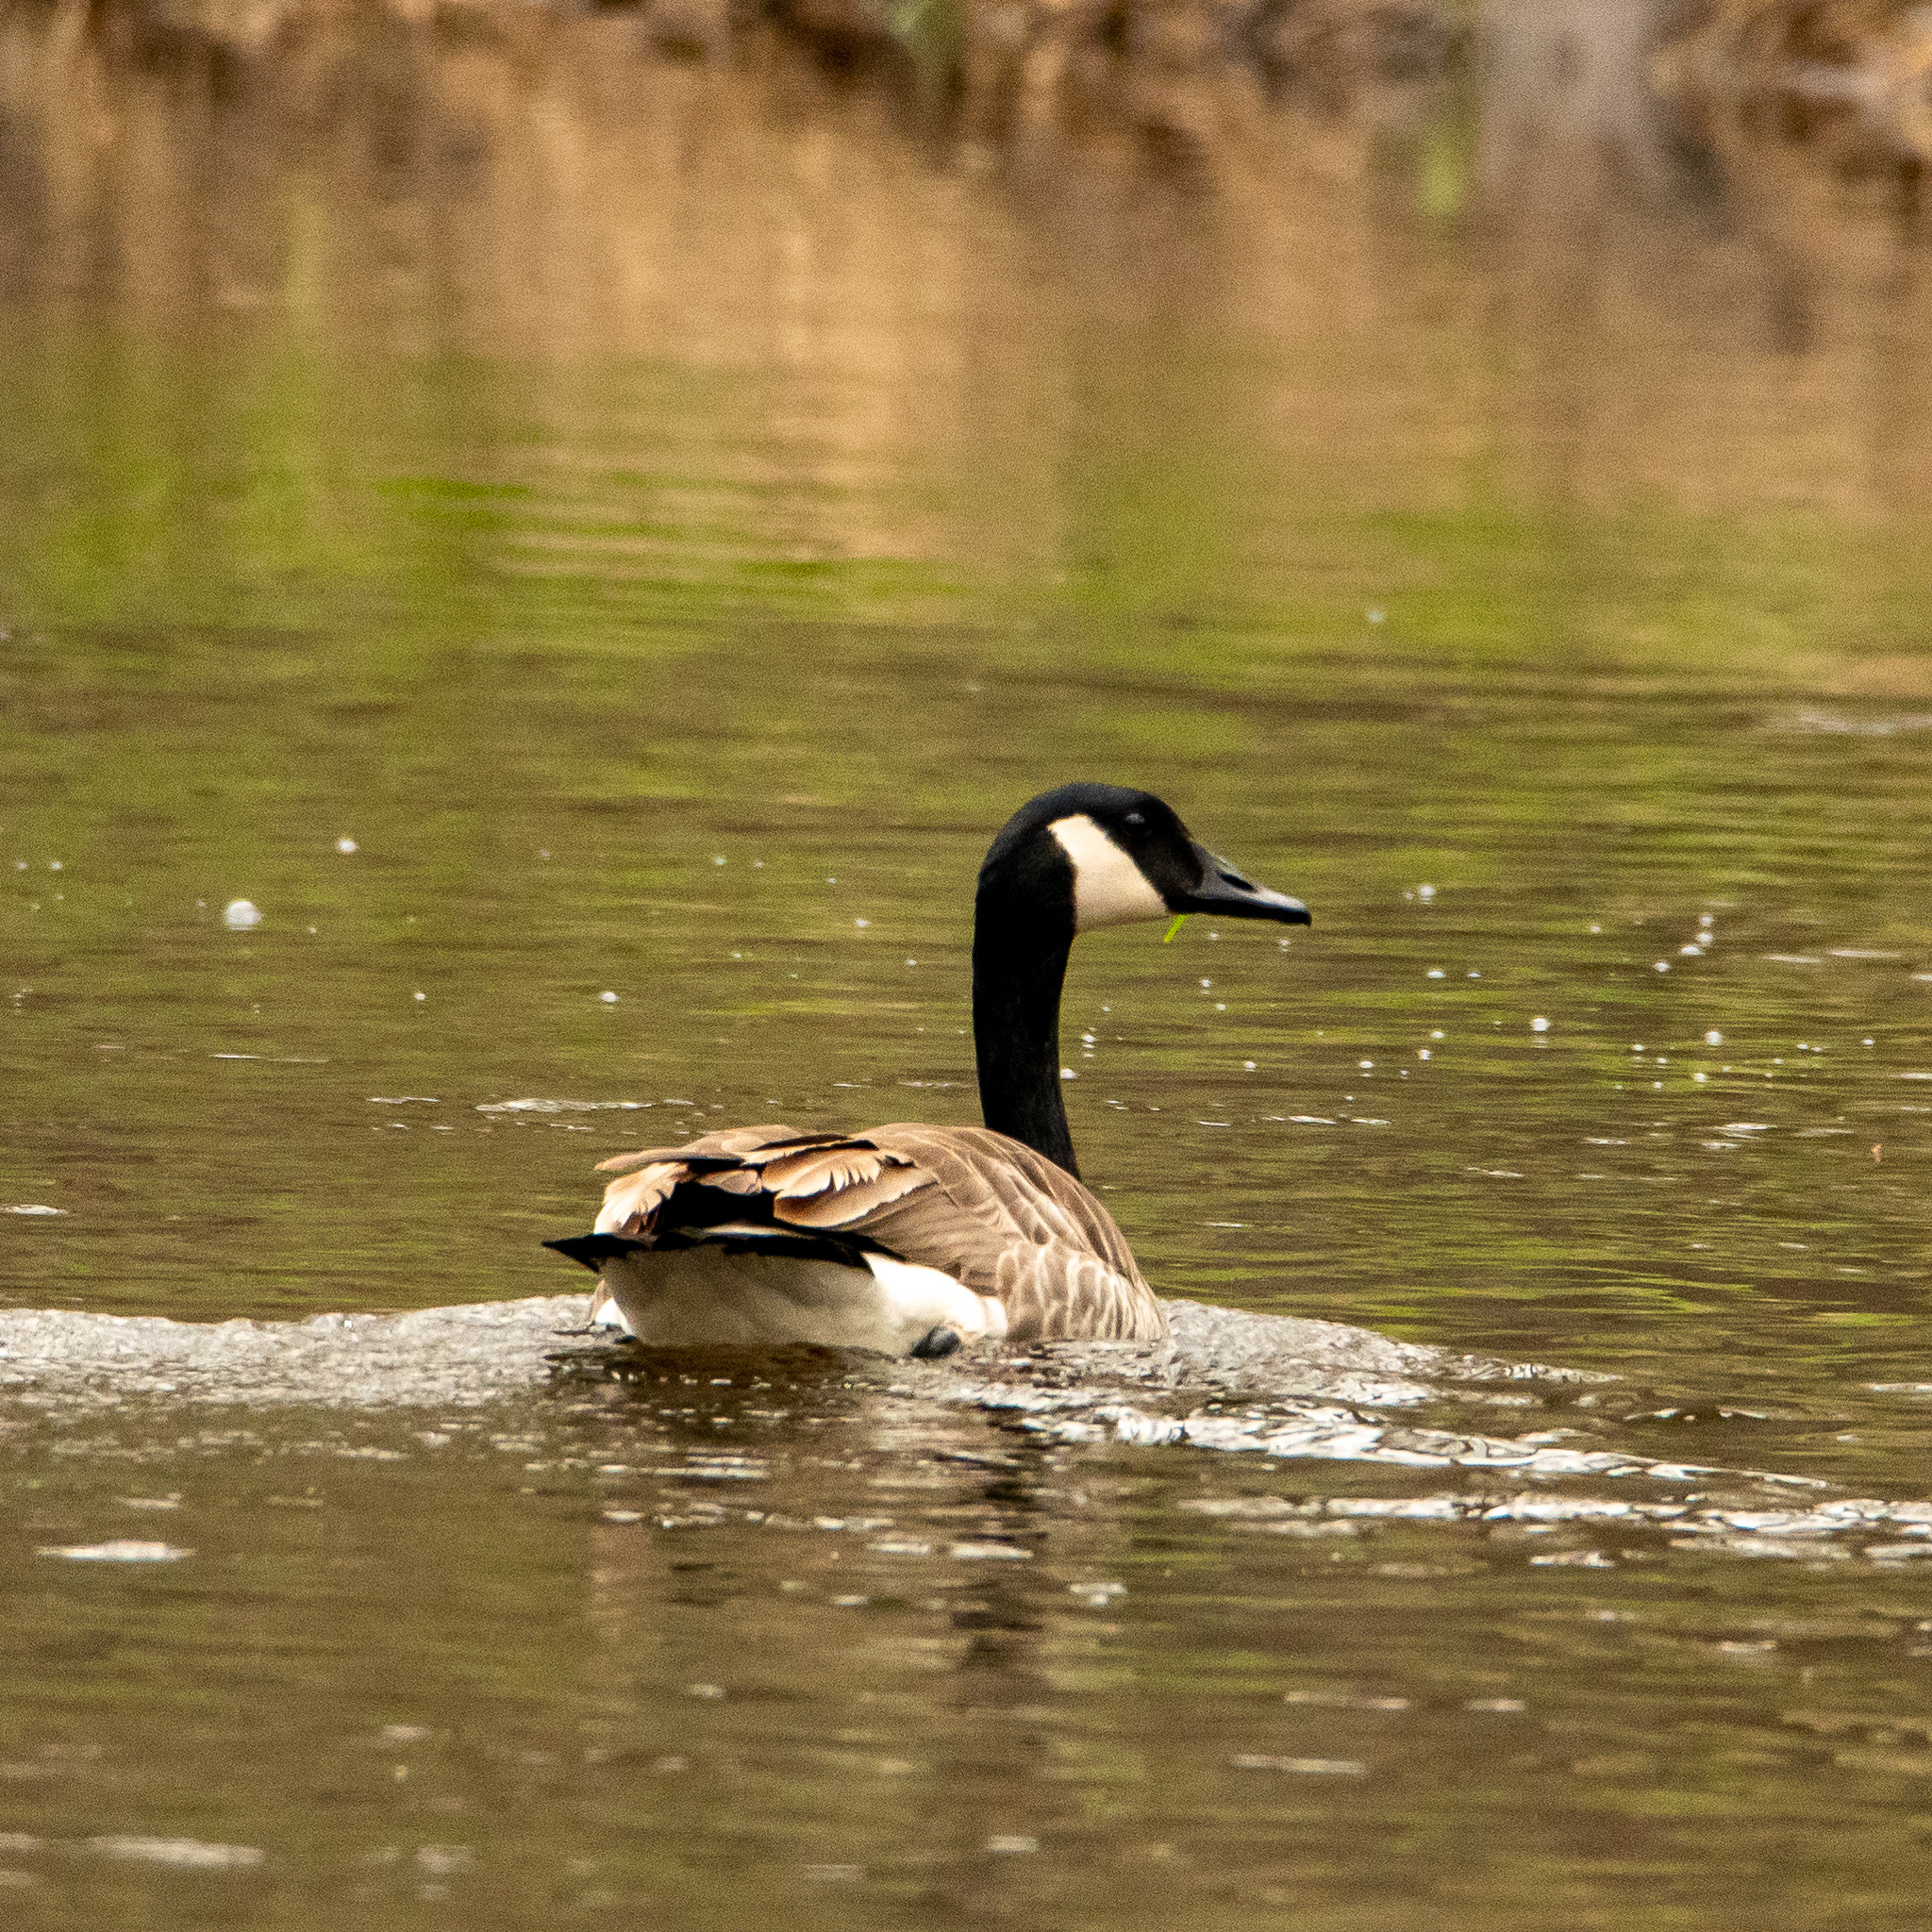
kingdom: Animalia
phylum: Chordata
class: Aves
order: Anseriformes
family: Anatidae
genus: Branta
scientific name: Branta canadensis
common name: Canada goose
